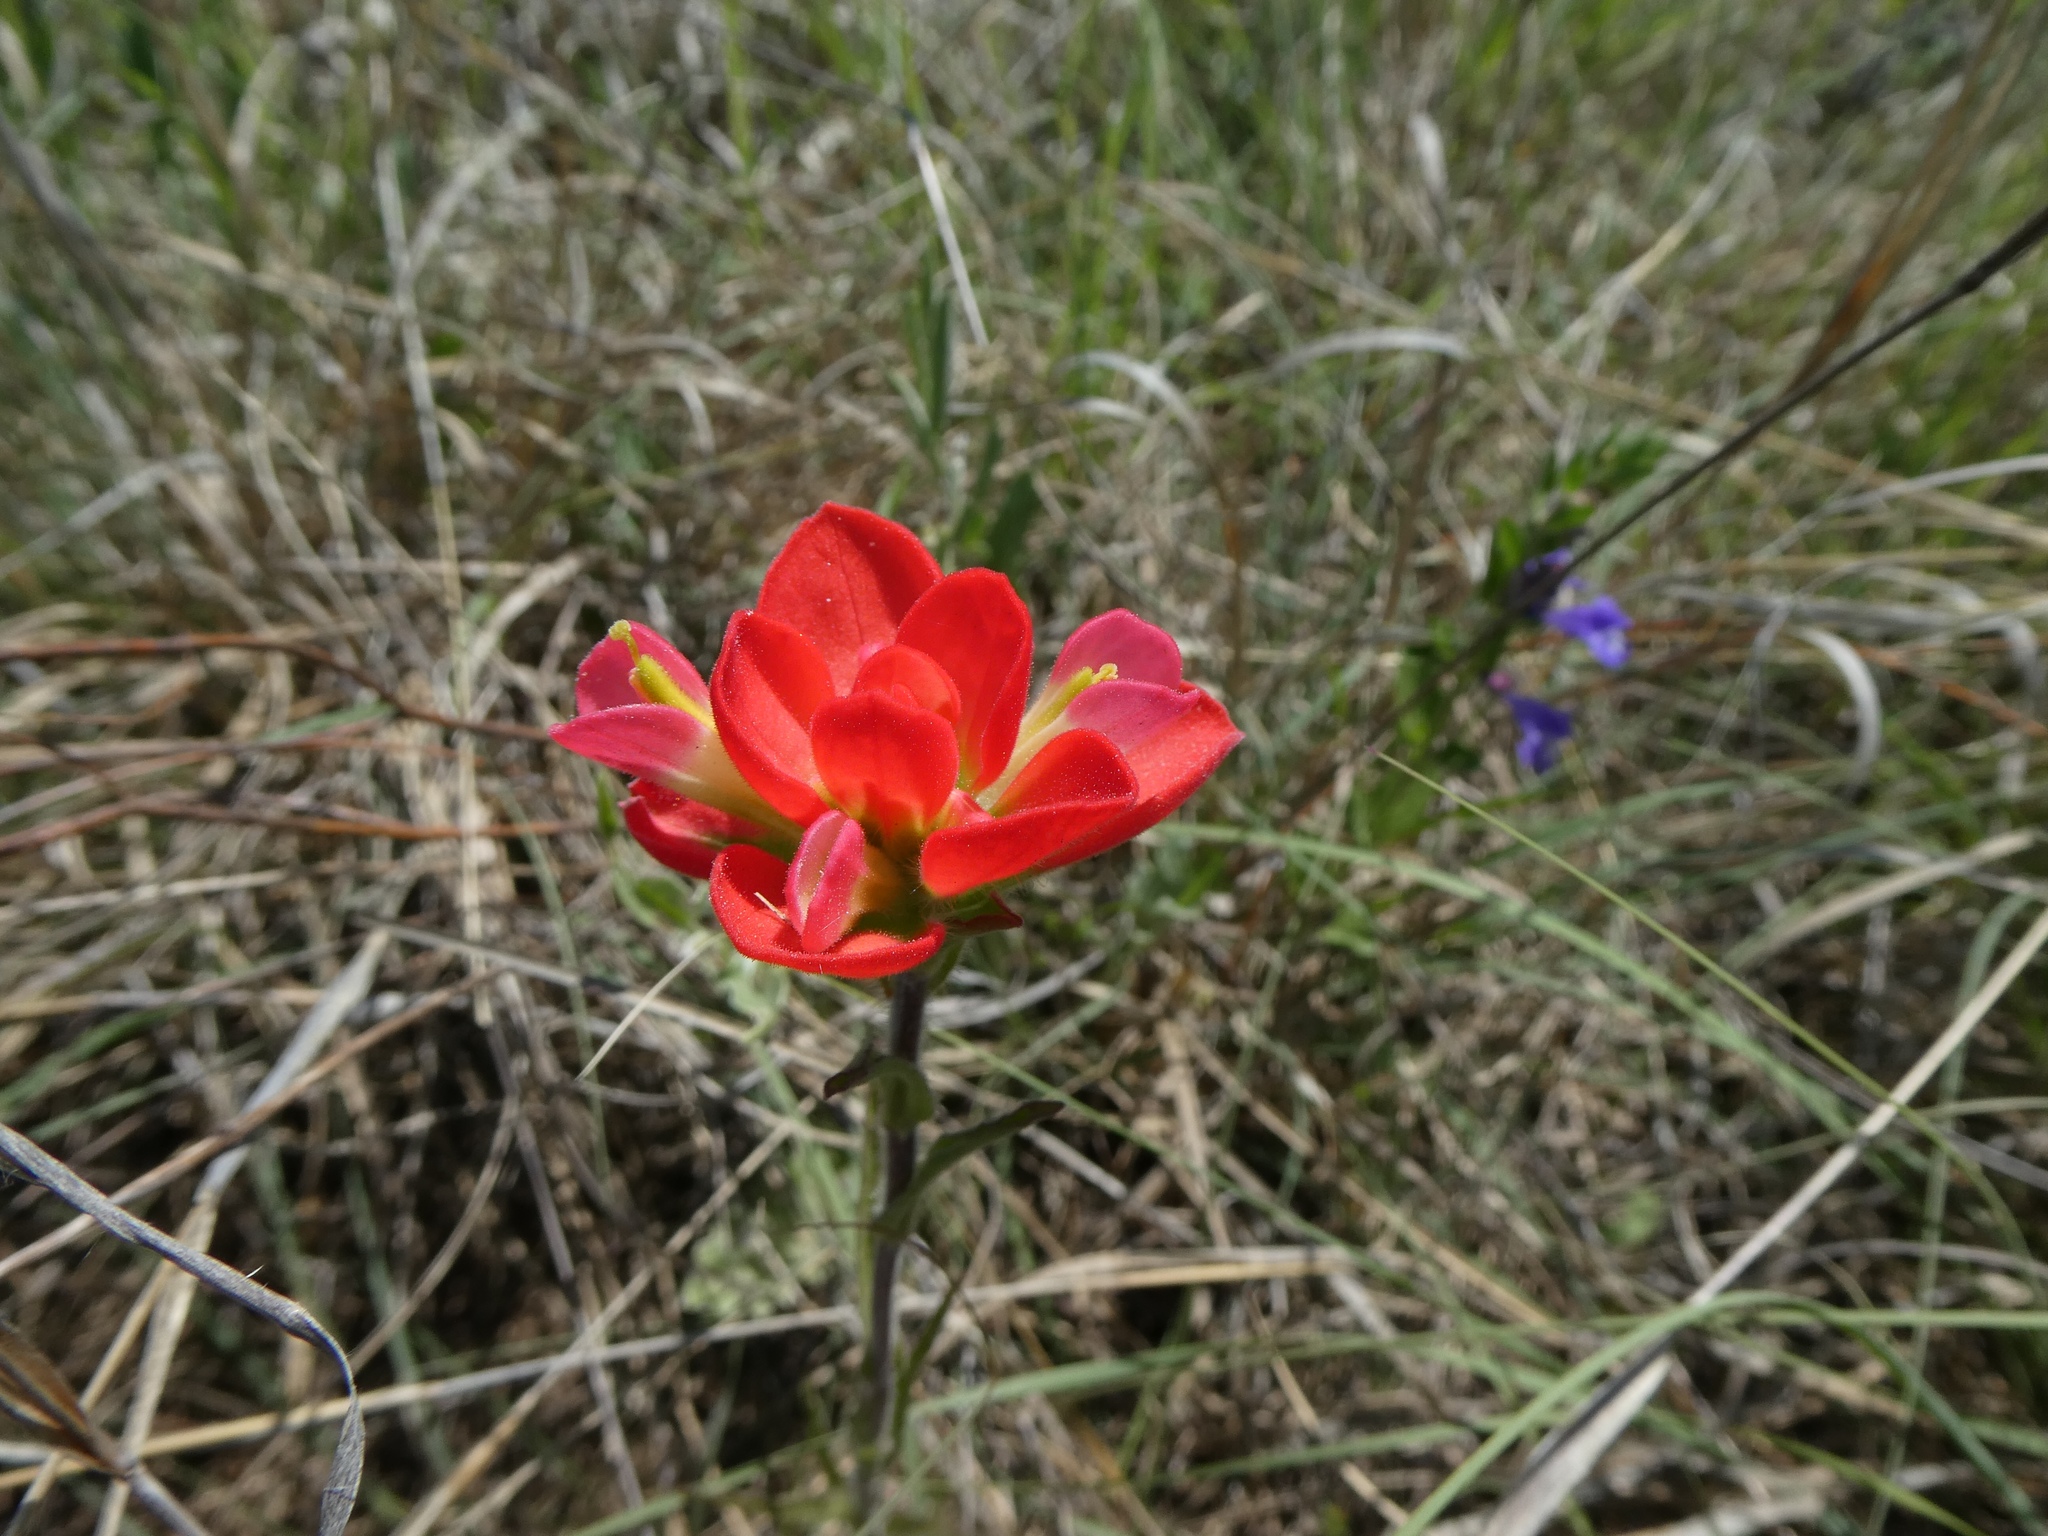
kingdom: Plantae
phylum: Tracheophyta
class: Magnoliopsida
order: Lamiales
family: Orobanchaceae
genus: Castilleja
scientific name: Castilleja indivisa
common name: Texas paintbrush
